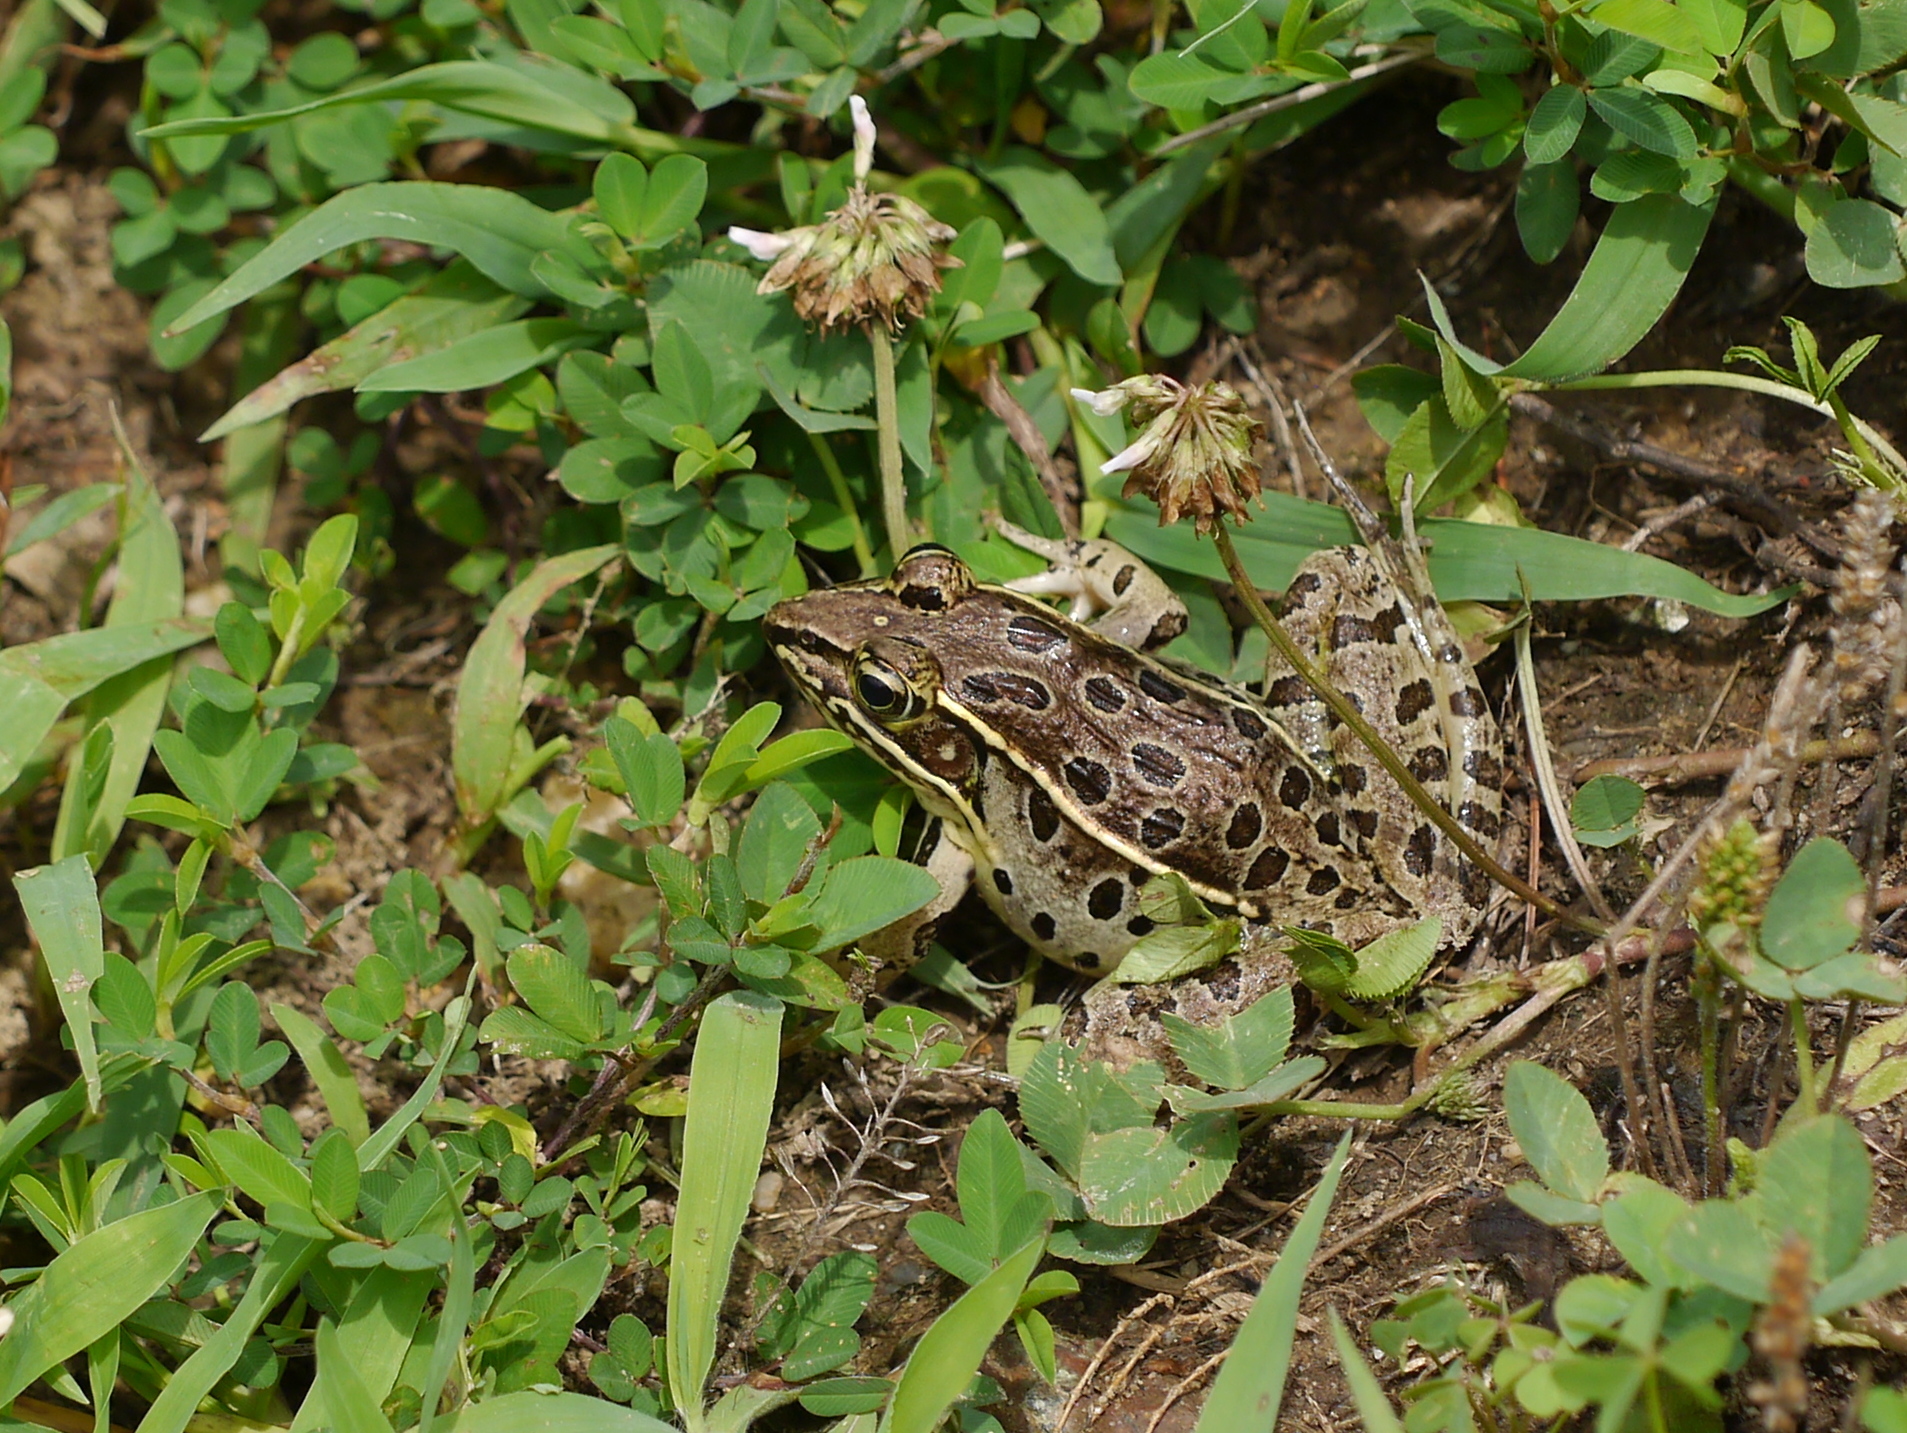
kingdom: Animalia
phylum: Chordata
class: Amphibia
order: Anura
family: Ranidae
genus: Lithobates
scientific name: Lithobates sphenocephalus
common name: Southern leopard frog
